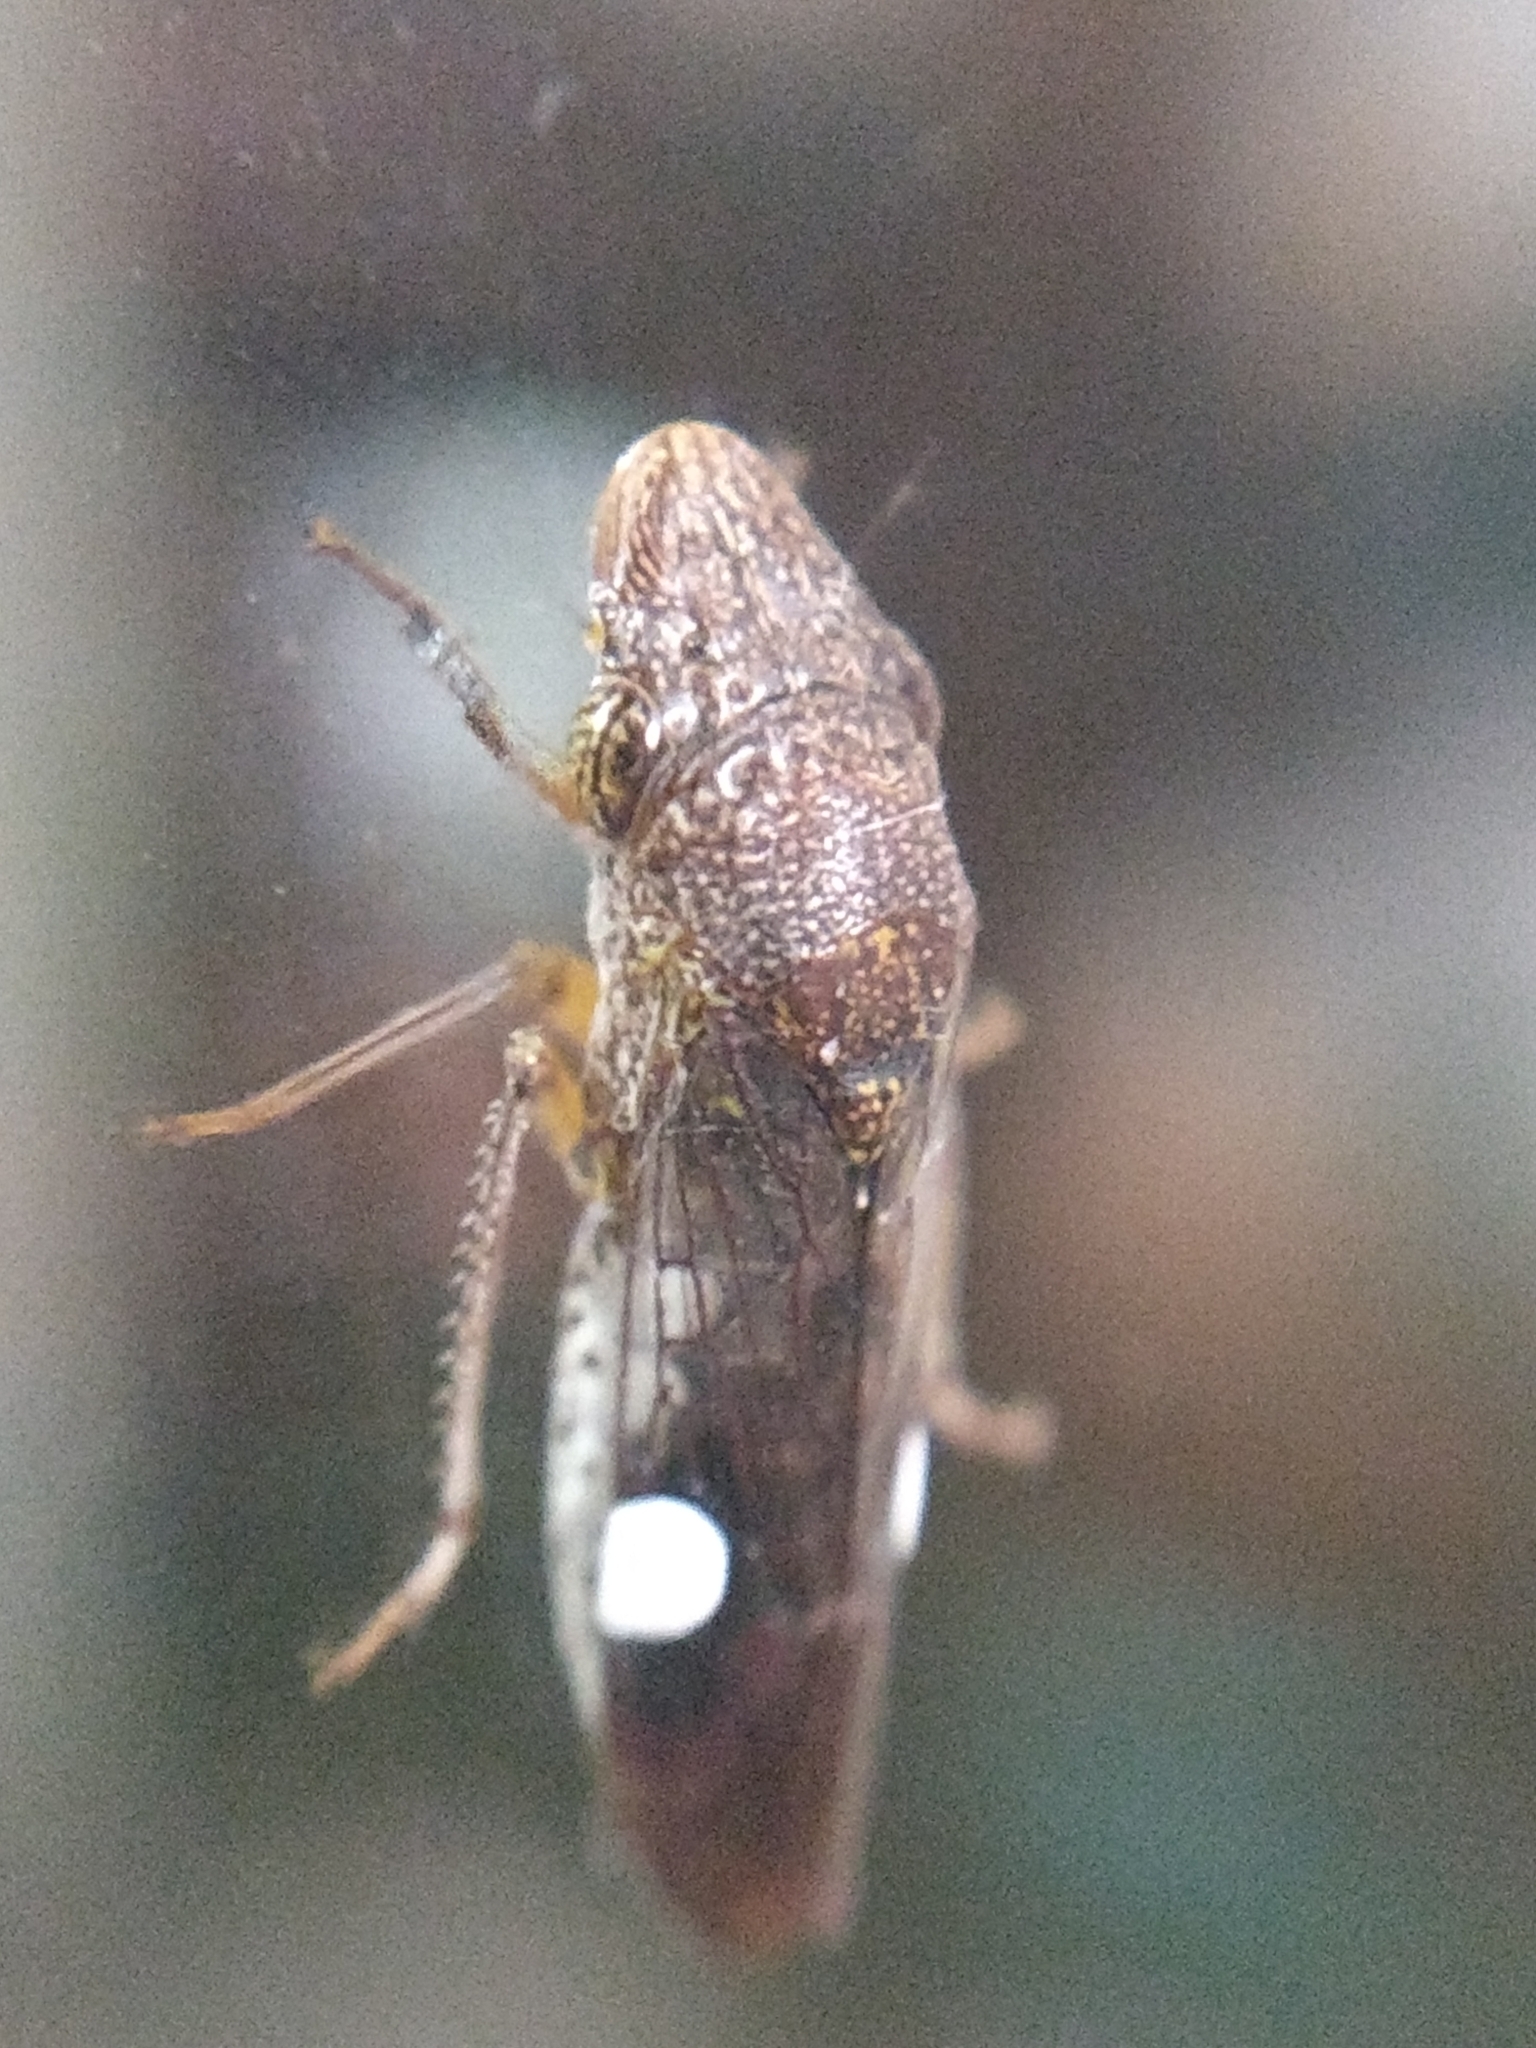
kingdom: Animalia
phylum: Arthropoda
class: Insecta
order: Hemiptera
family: Cicadellidae
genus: Homalodisca
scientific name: Homalodisca vitripennis
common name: Glassy-winged sharpshooter
